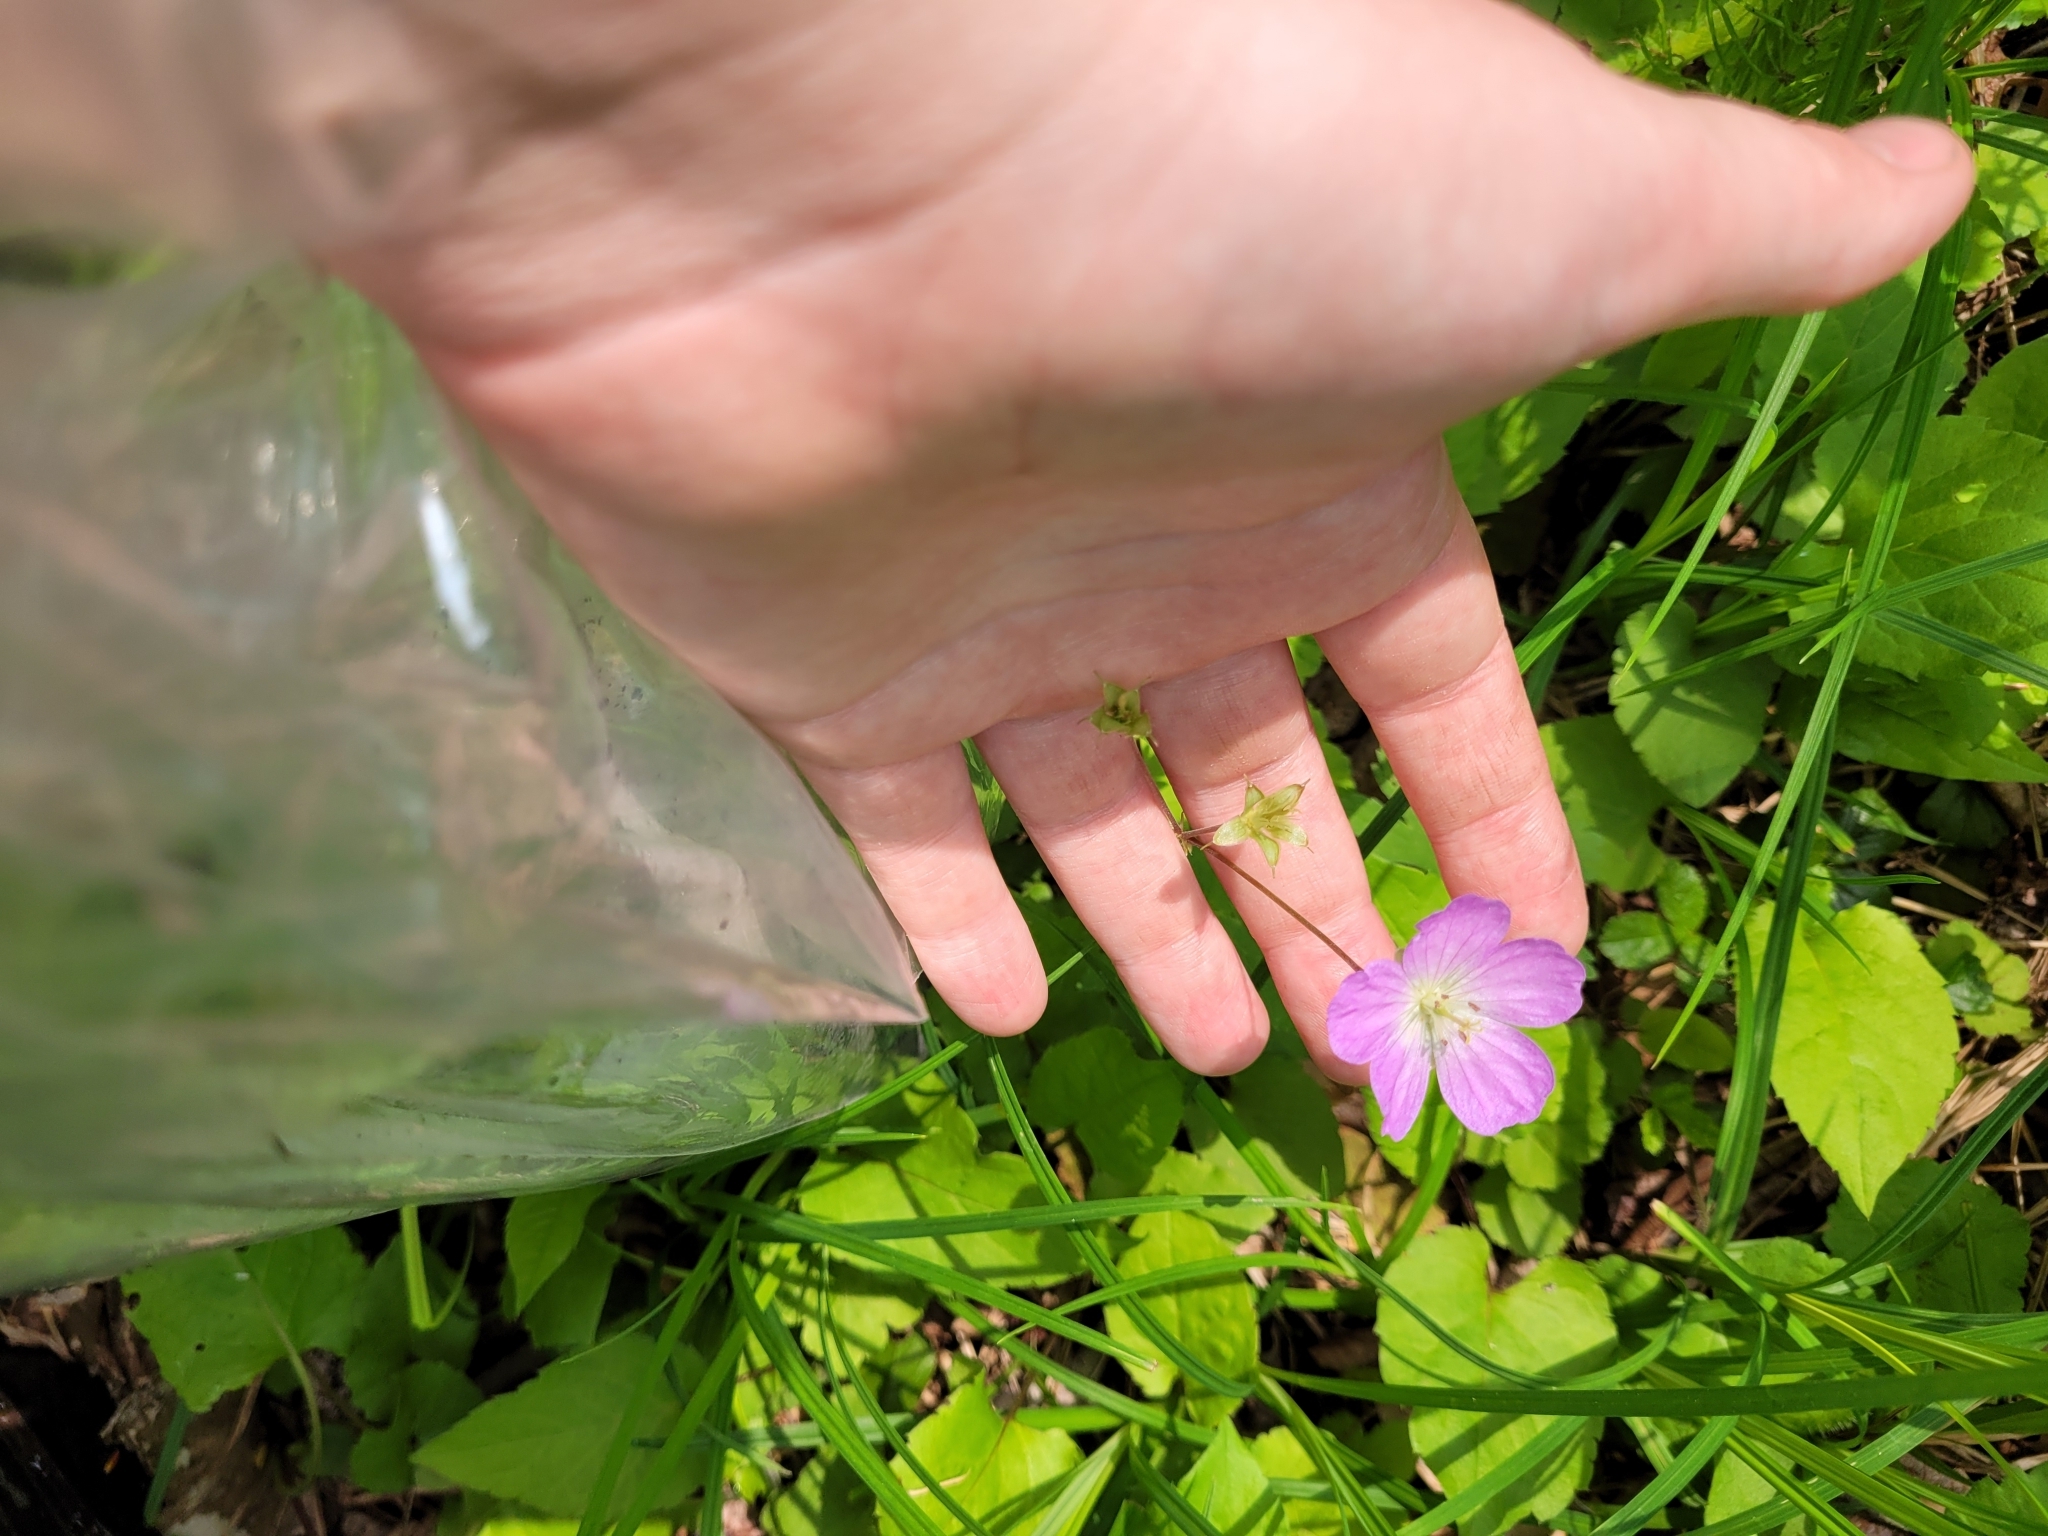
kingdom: Plantae
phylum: Tracheophyta
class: Magnoliopsida
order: Geraniales
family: Geraniaceae
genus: Geranium
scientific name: Geranium maculatum
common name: Spotted geranium
